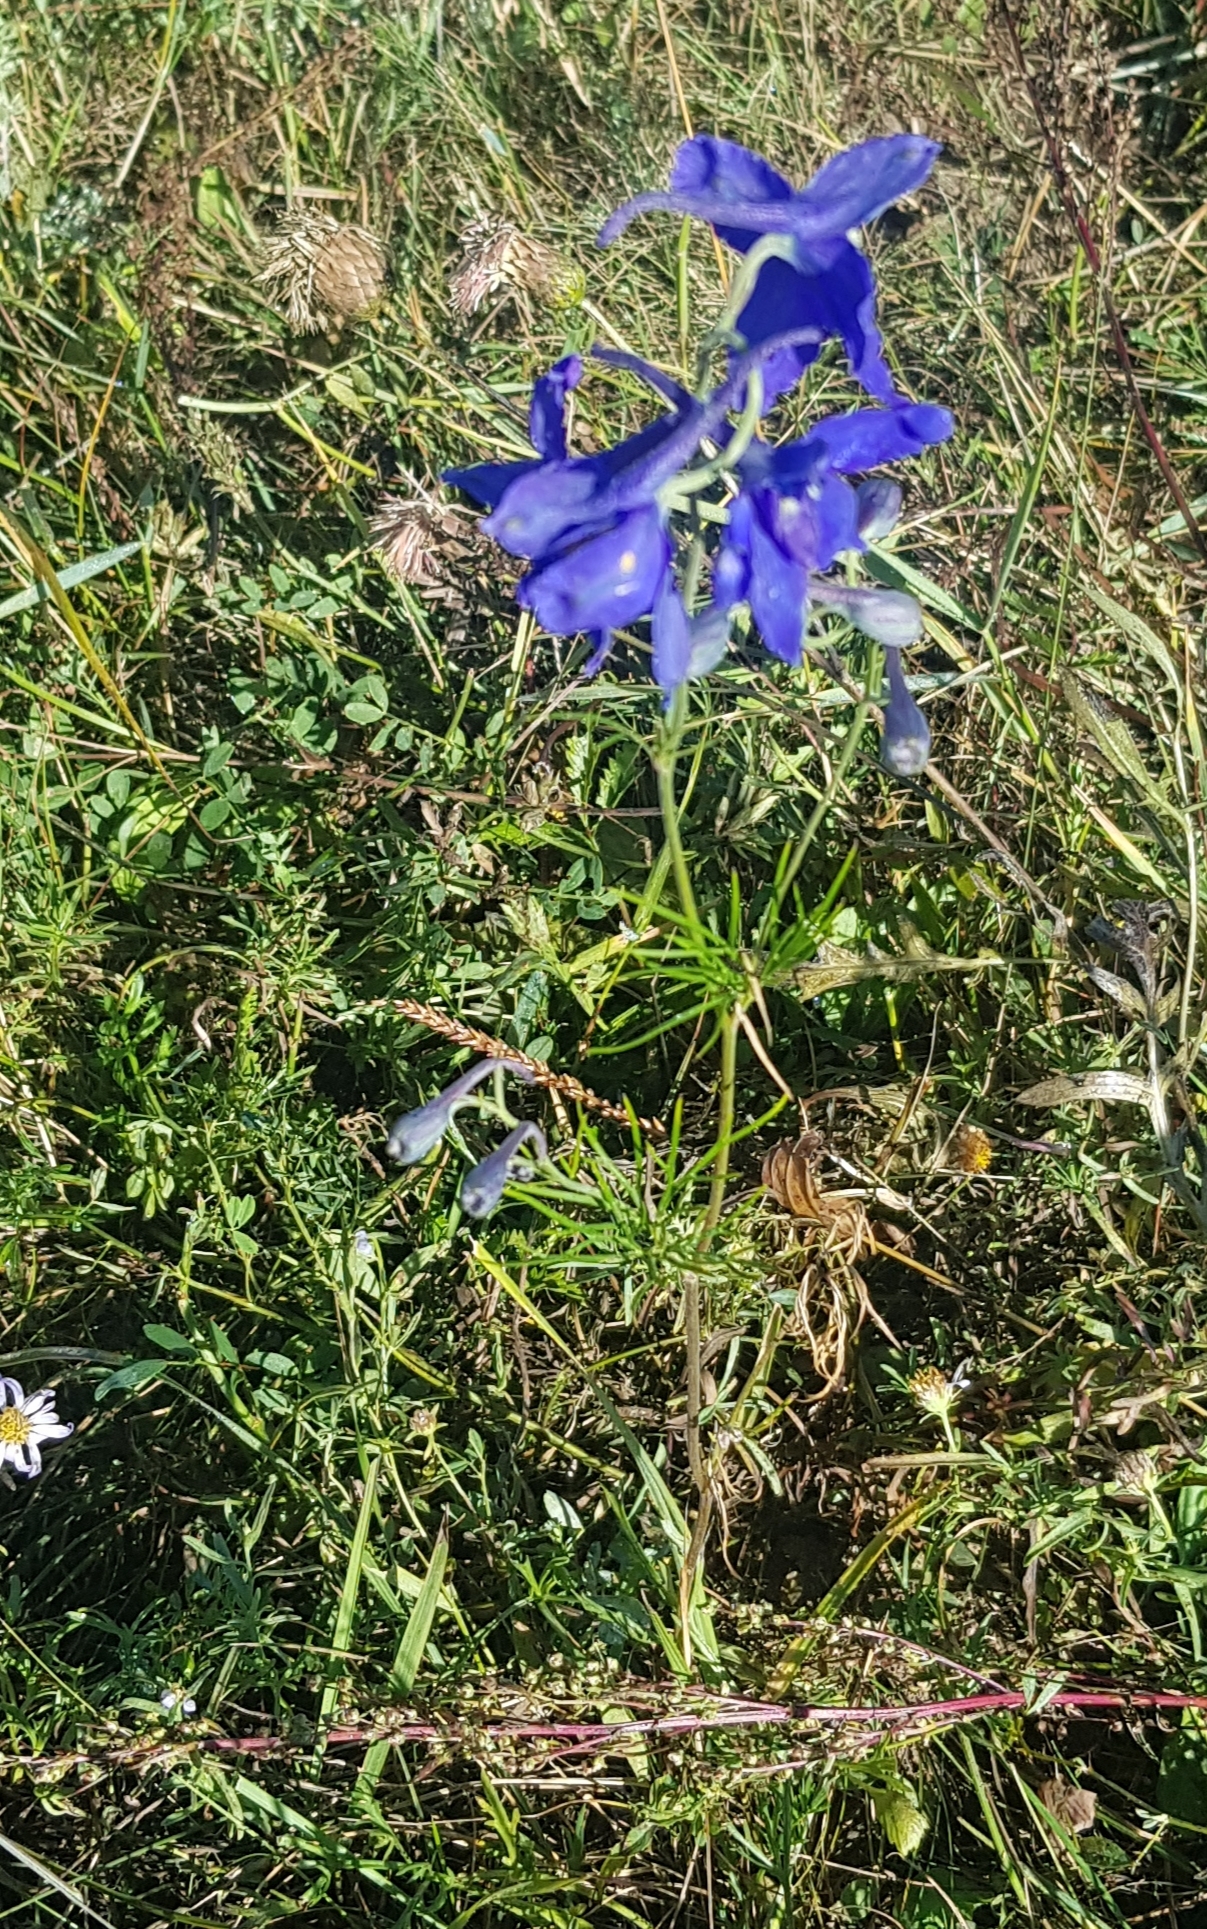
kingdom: Plantae
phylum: Tracheophyta
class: Magnoliopsida
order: Ranunculales
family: Ranunculaceae
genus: Delphinium
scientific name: Delphinium grandiflorum
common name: Siberian larkspur
